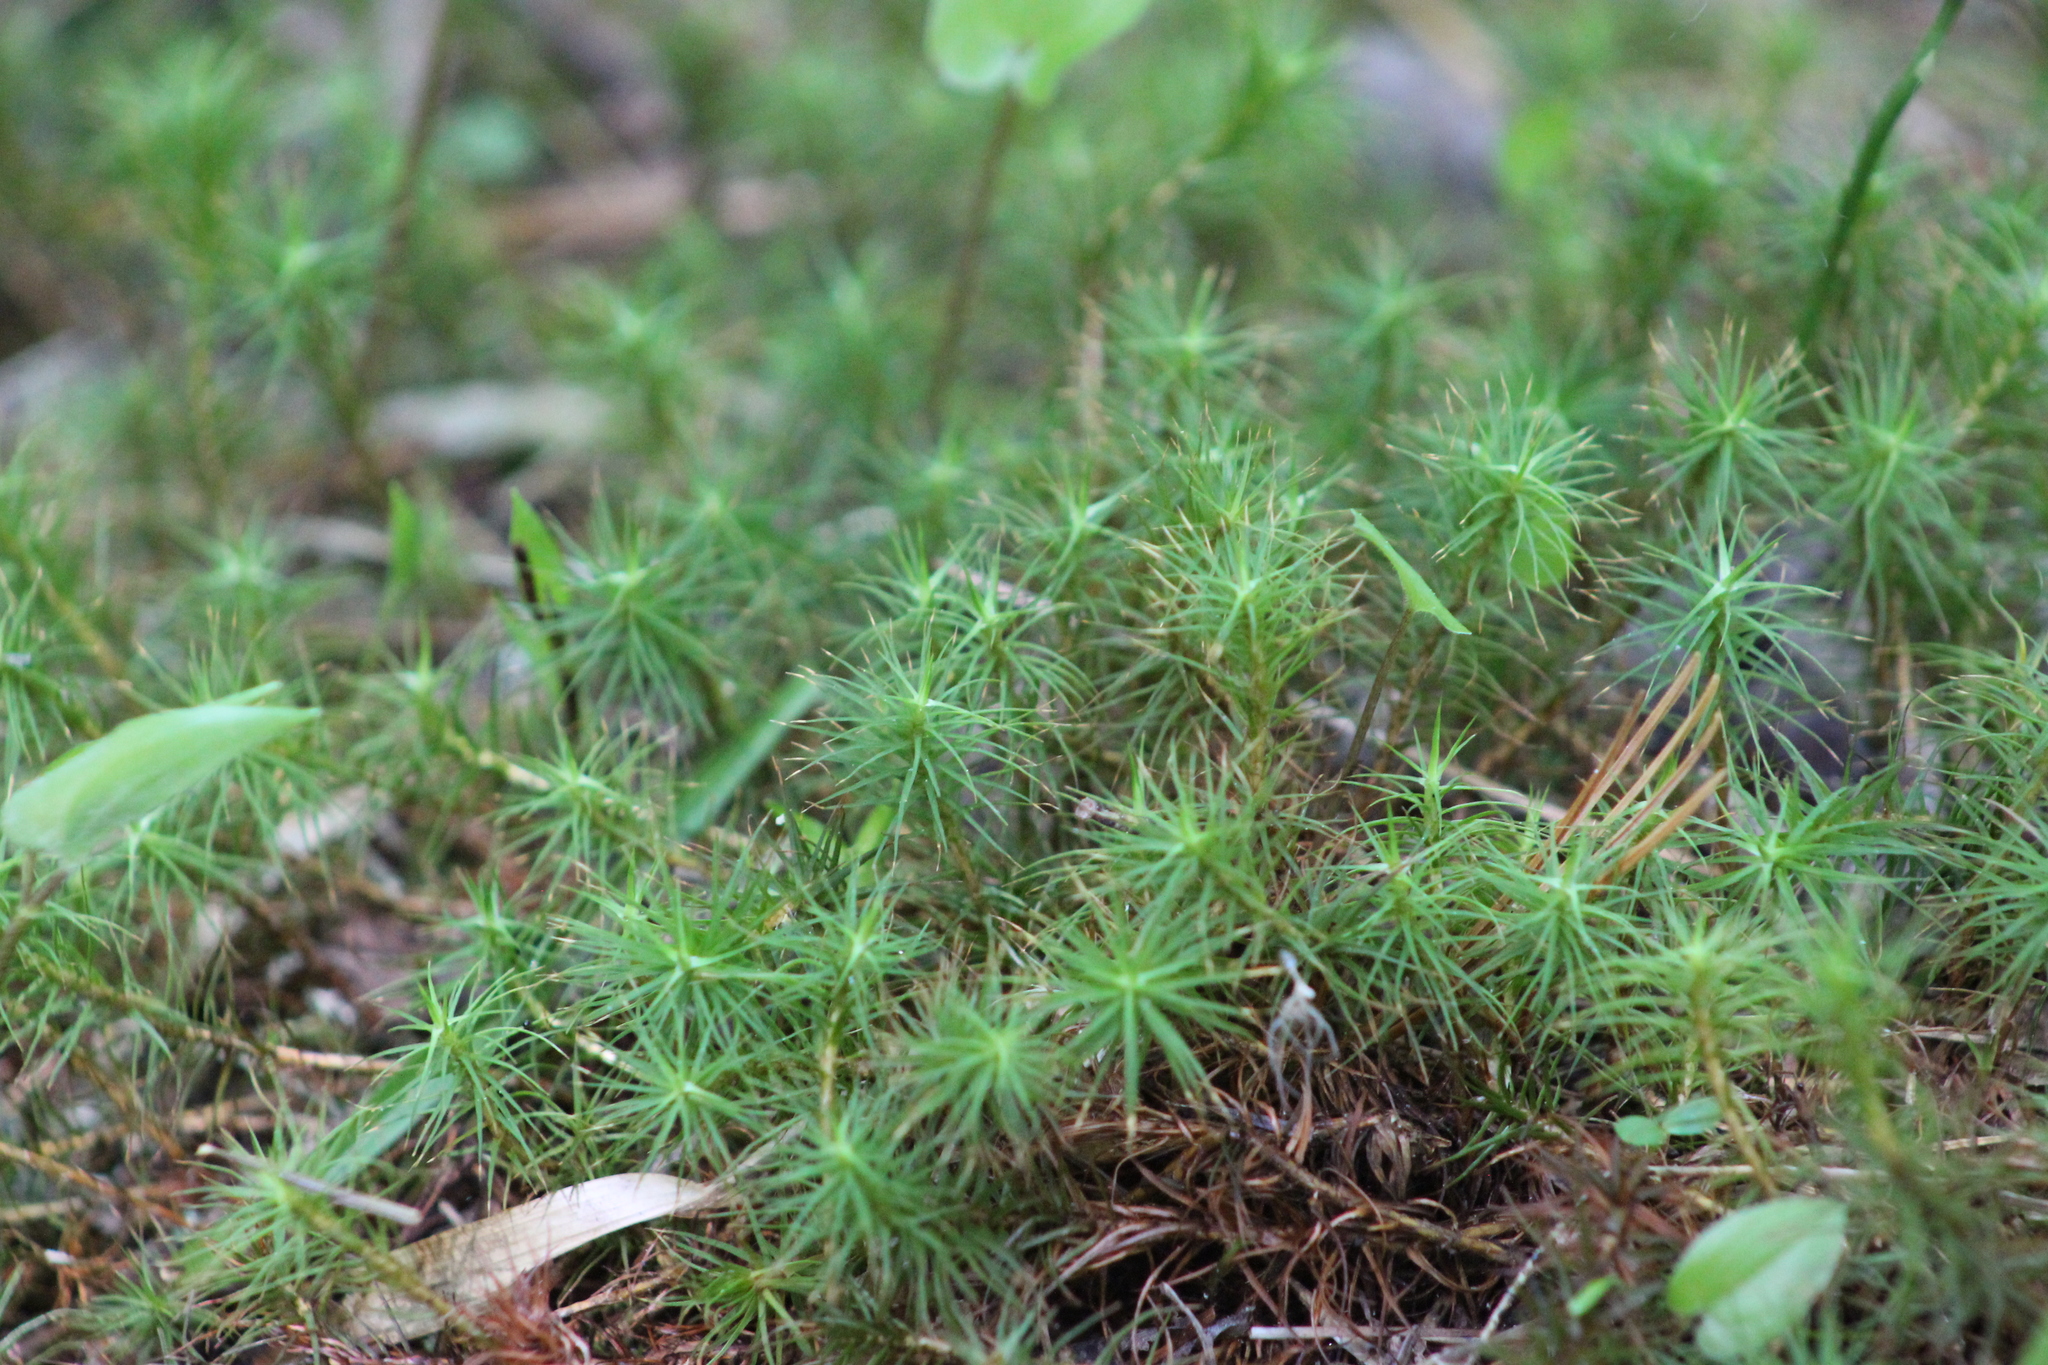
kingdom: Plantae
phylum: Bryophyta
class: Polytrichopsida
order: Polytrichales
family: Polytrichaceae
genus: Polytrichum
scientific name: Polytrichum commune
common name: Common haircap
